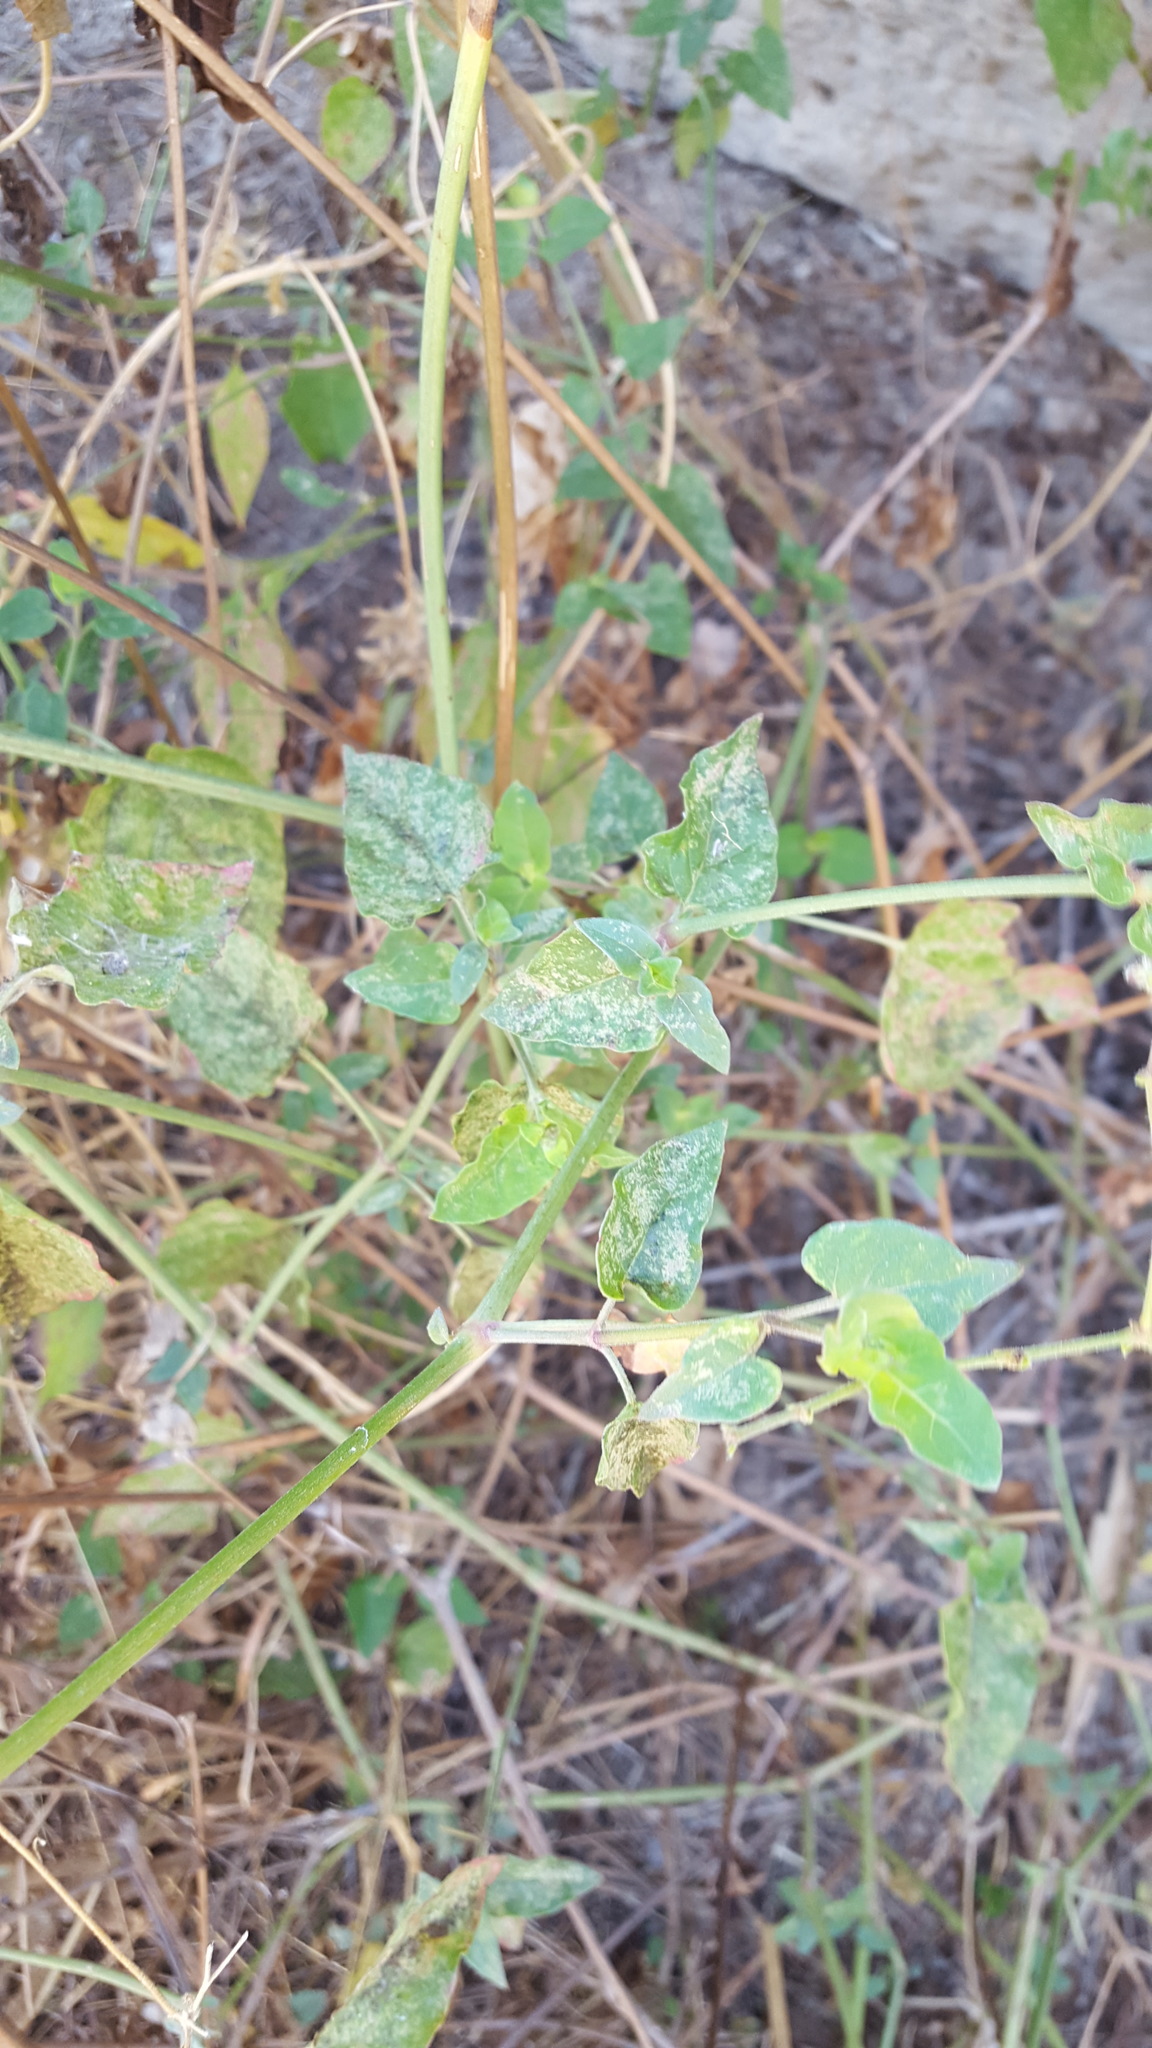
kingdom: Plantae
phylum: Tracheophyta
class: Magnoliopsida
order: Caryophyllales
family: Nyctaginaceae
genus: Mirabilis
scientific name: Mirabilis viscosa
